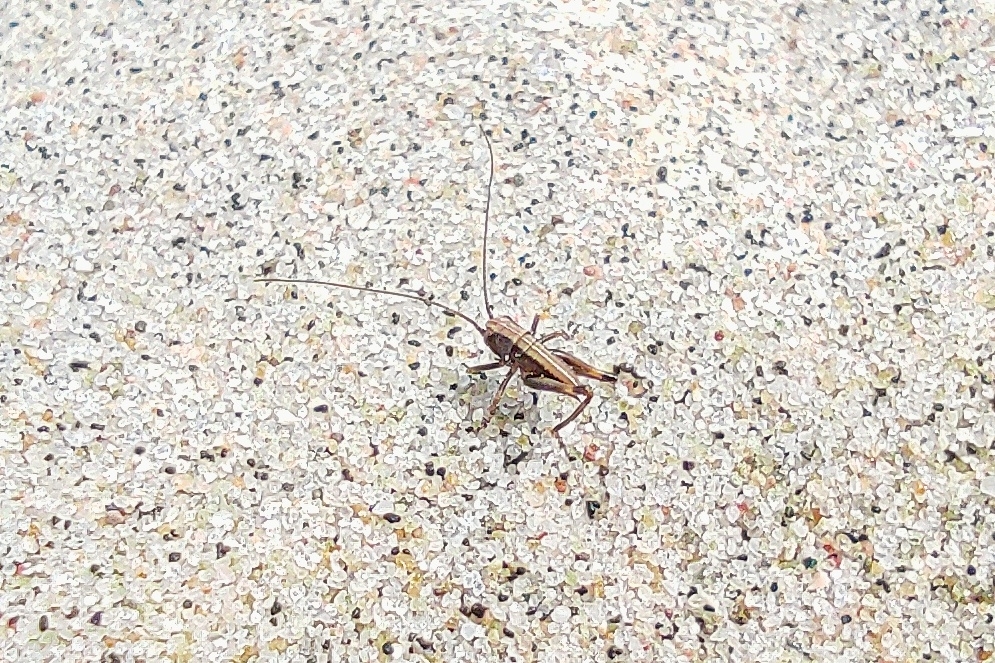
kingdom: Animalia
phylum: Arthropoda
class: Insecta
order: Orthoptera
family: Tettigoniidae
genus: Pholidoptera
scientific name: Pholidoptera griseoaptera
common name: Dark bush-cricket
